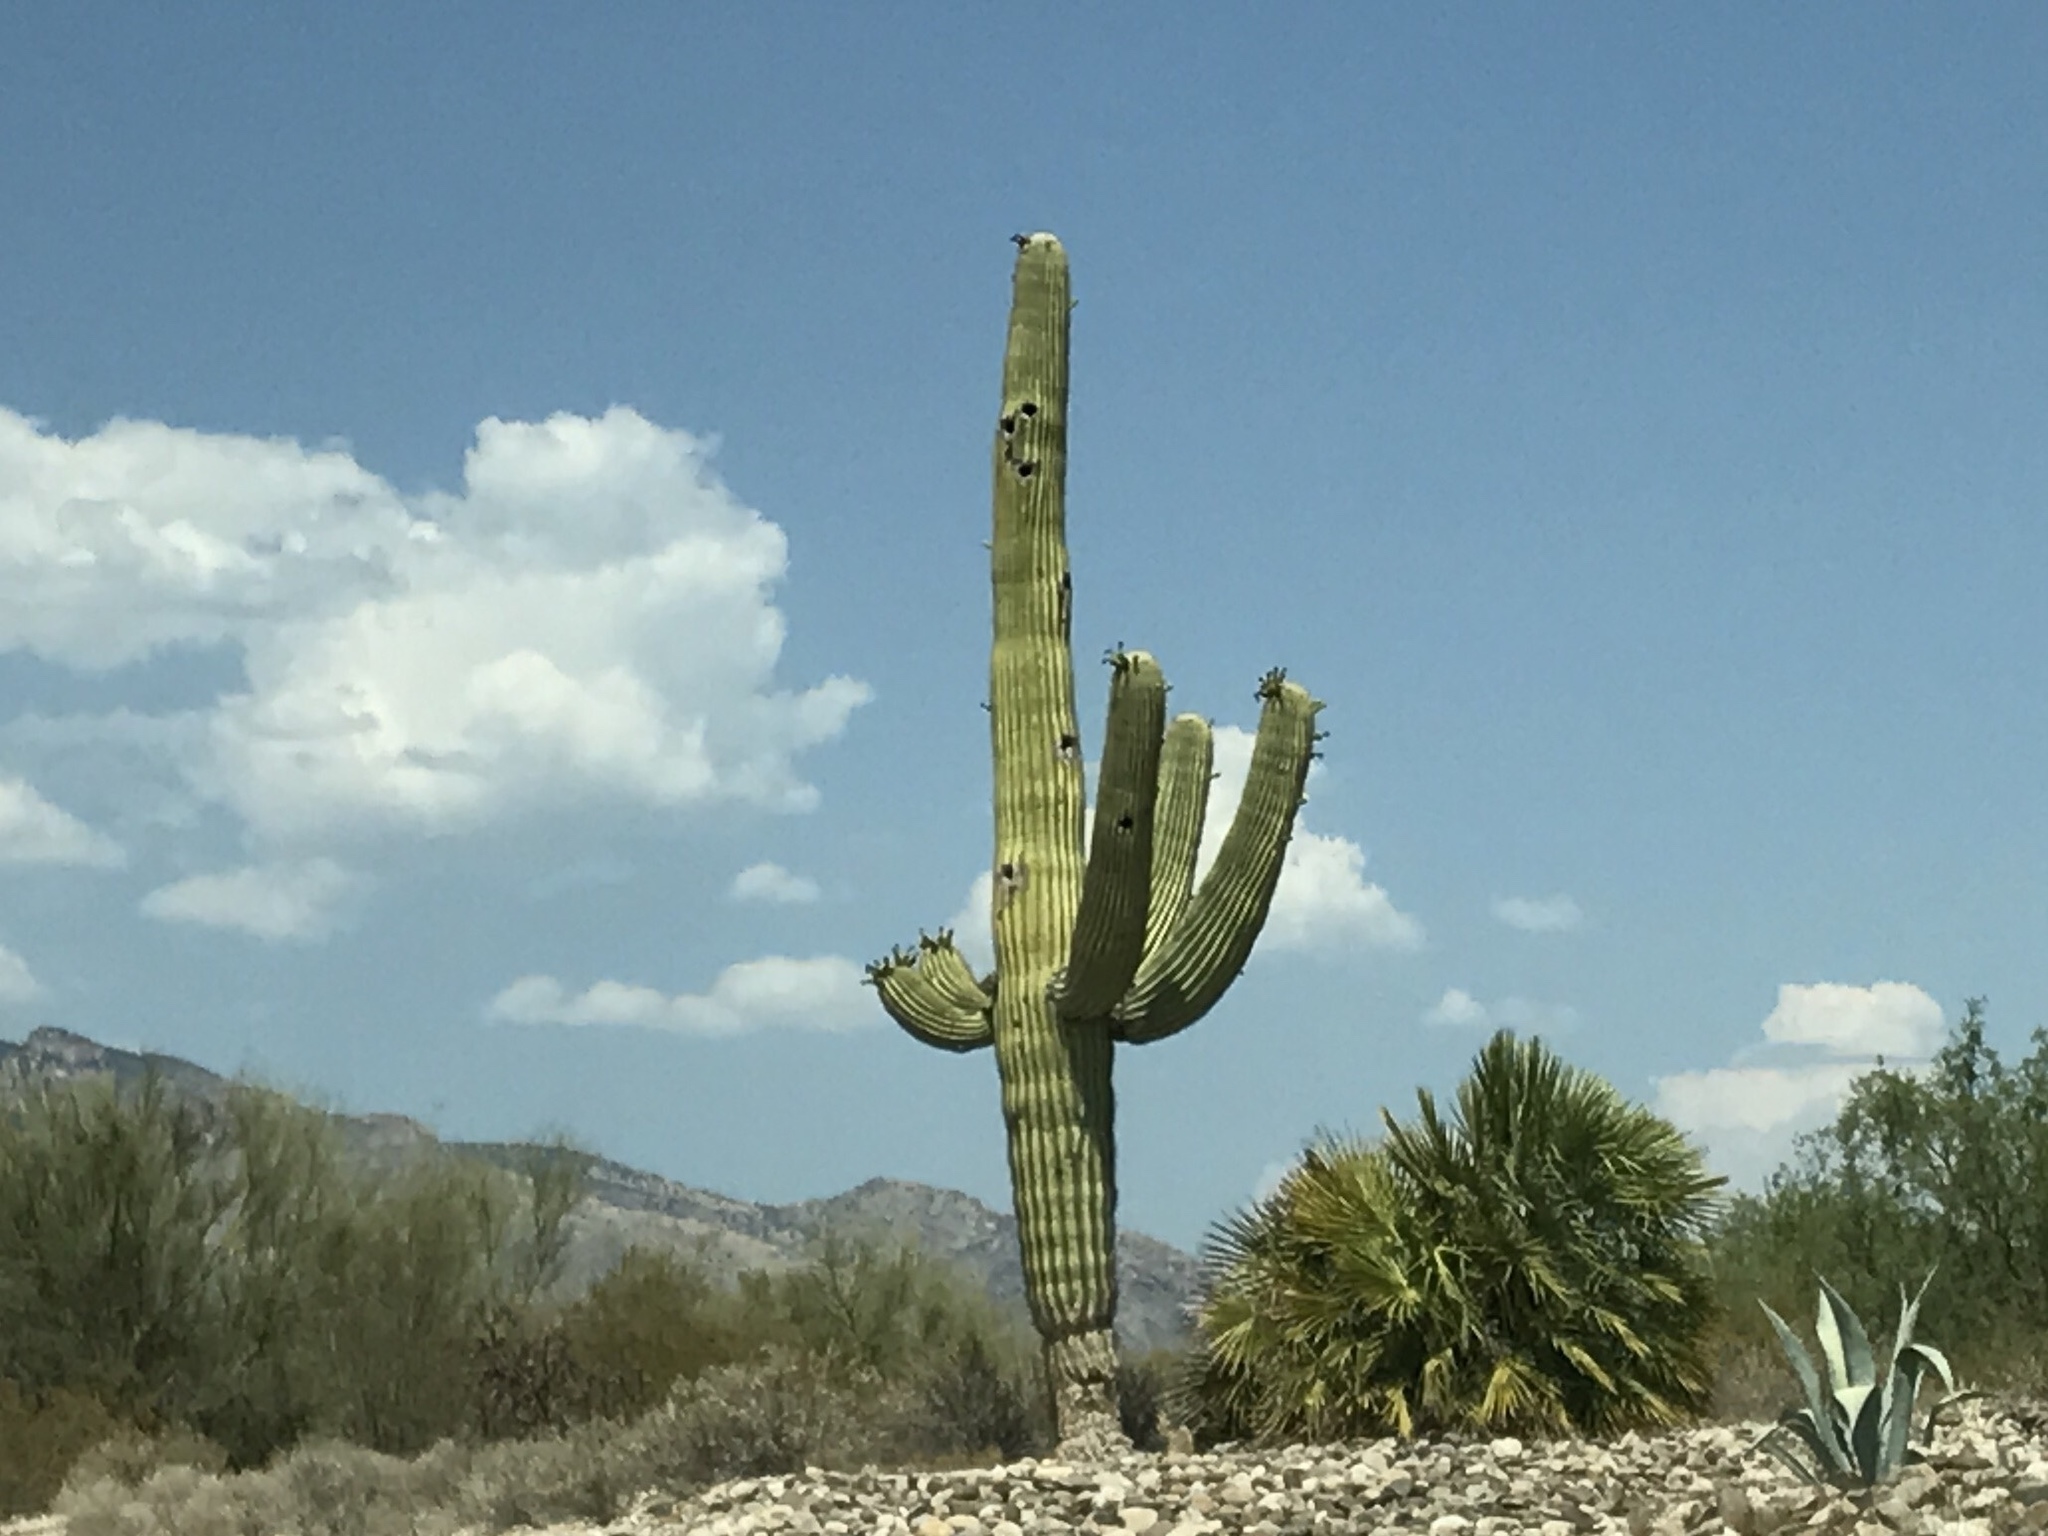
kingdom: Plantae
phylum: Tracheophyta
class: Magnoliopsida
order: Caryophyllales
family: Cactaceae
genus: Carnegiea
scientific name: Carnegiea gigantea
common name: Saguaro
